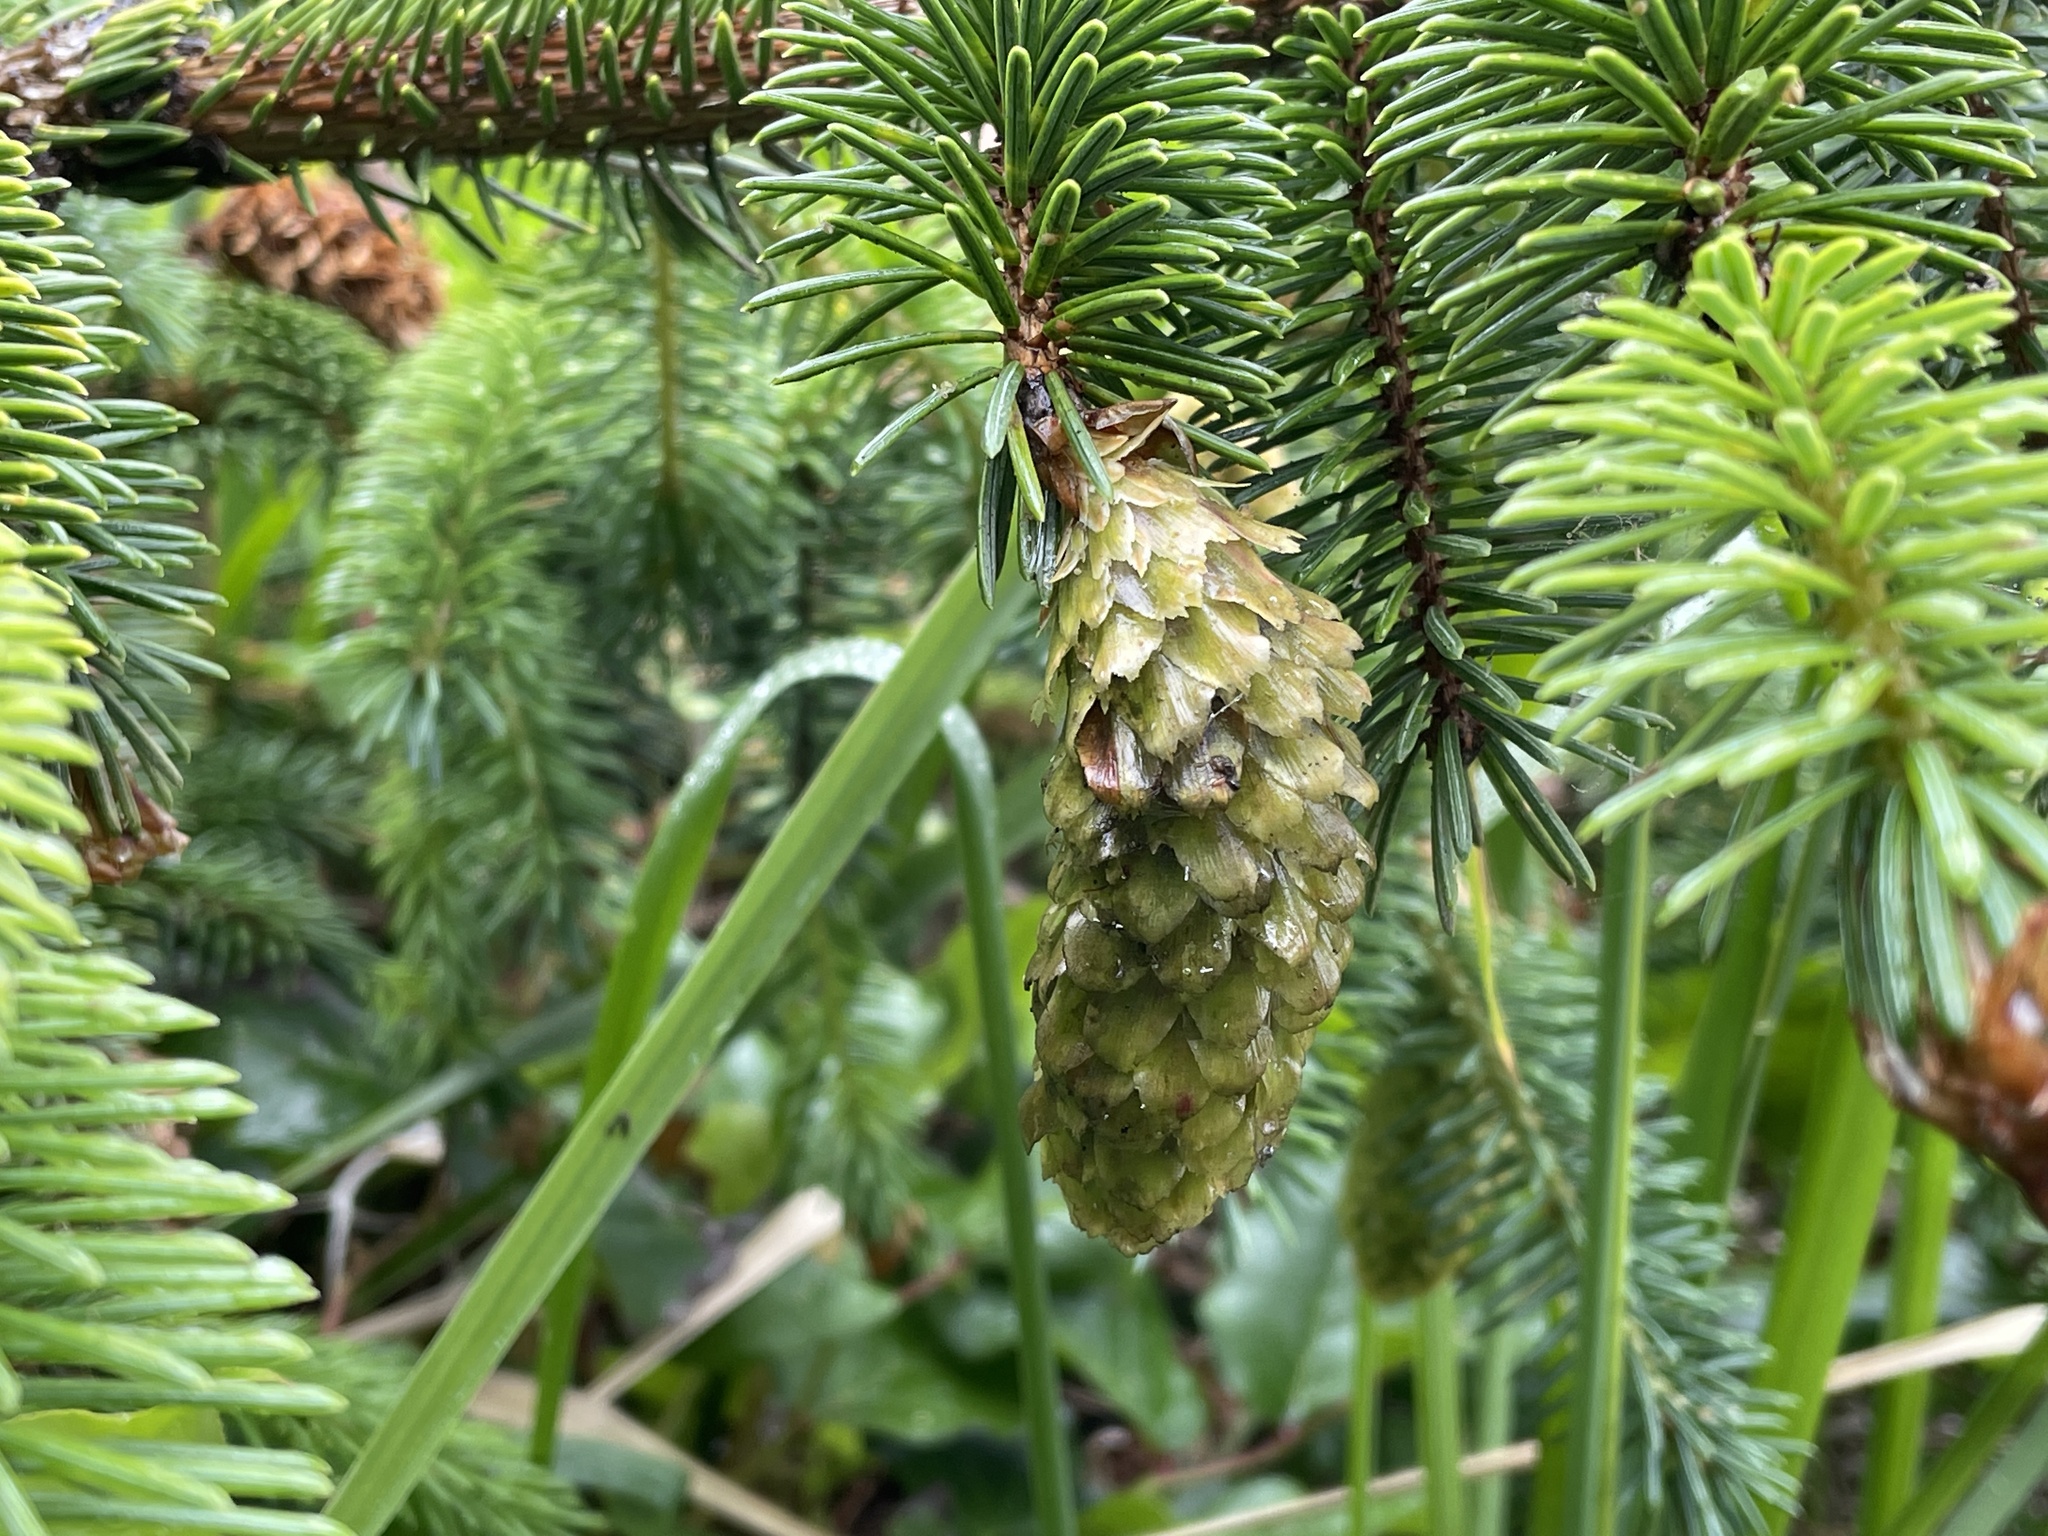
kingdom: Plantae
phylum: Tracheophyta
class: Pinopsida
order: Pinales
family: Pinaceae
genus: Picea
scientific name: Picea sitchensis
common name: Sitka spruce
